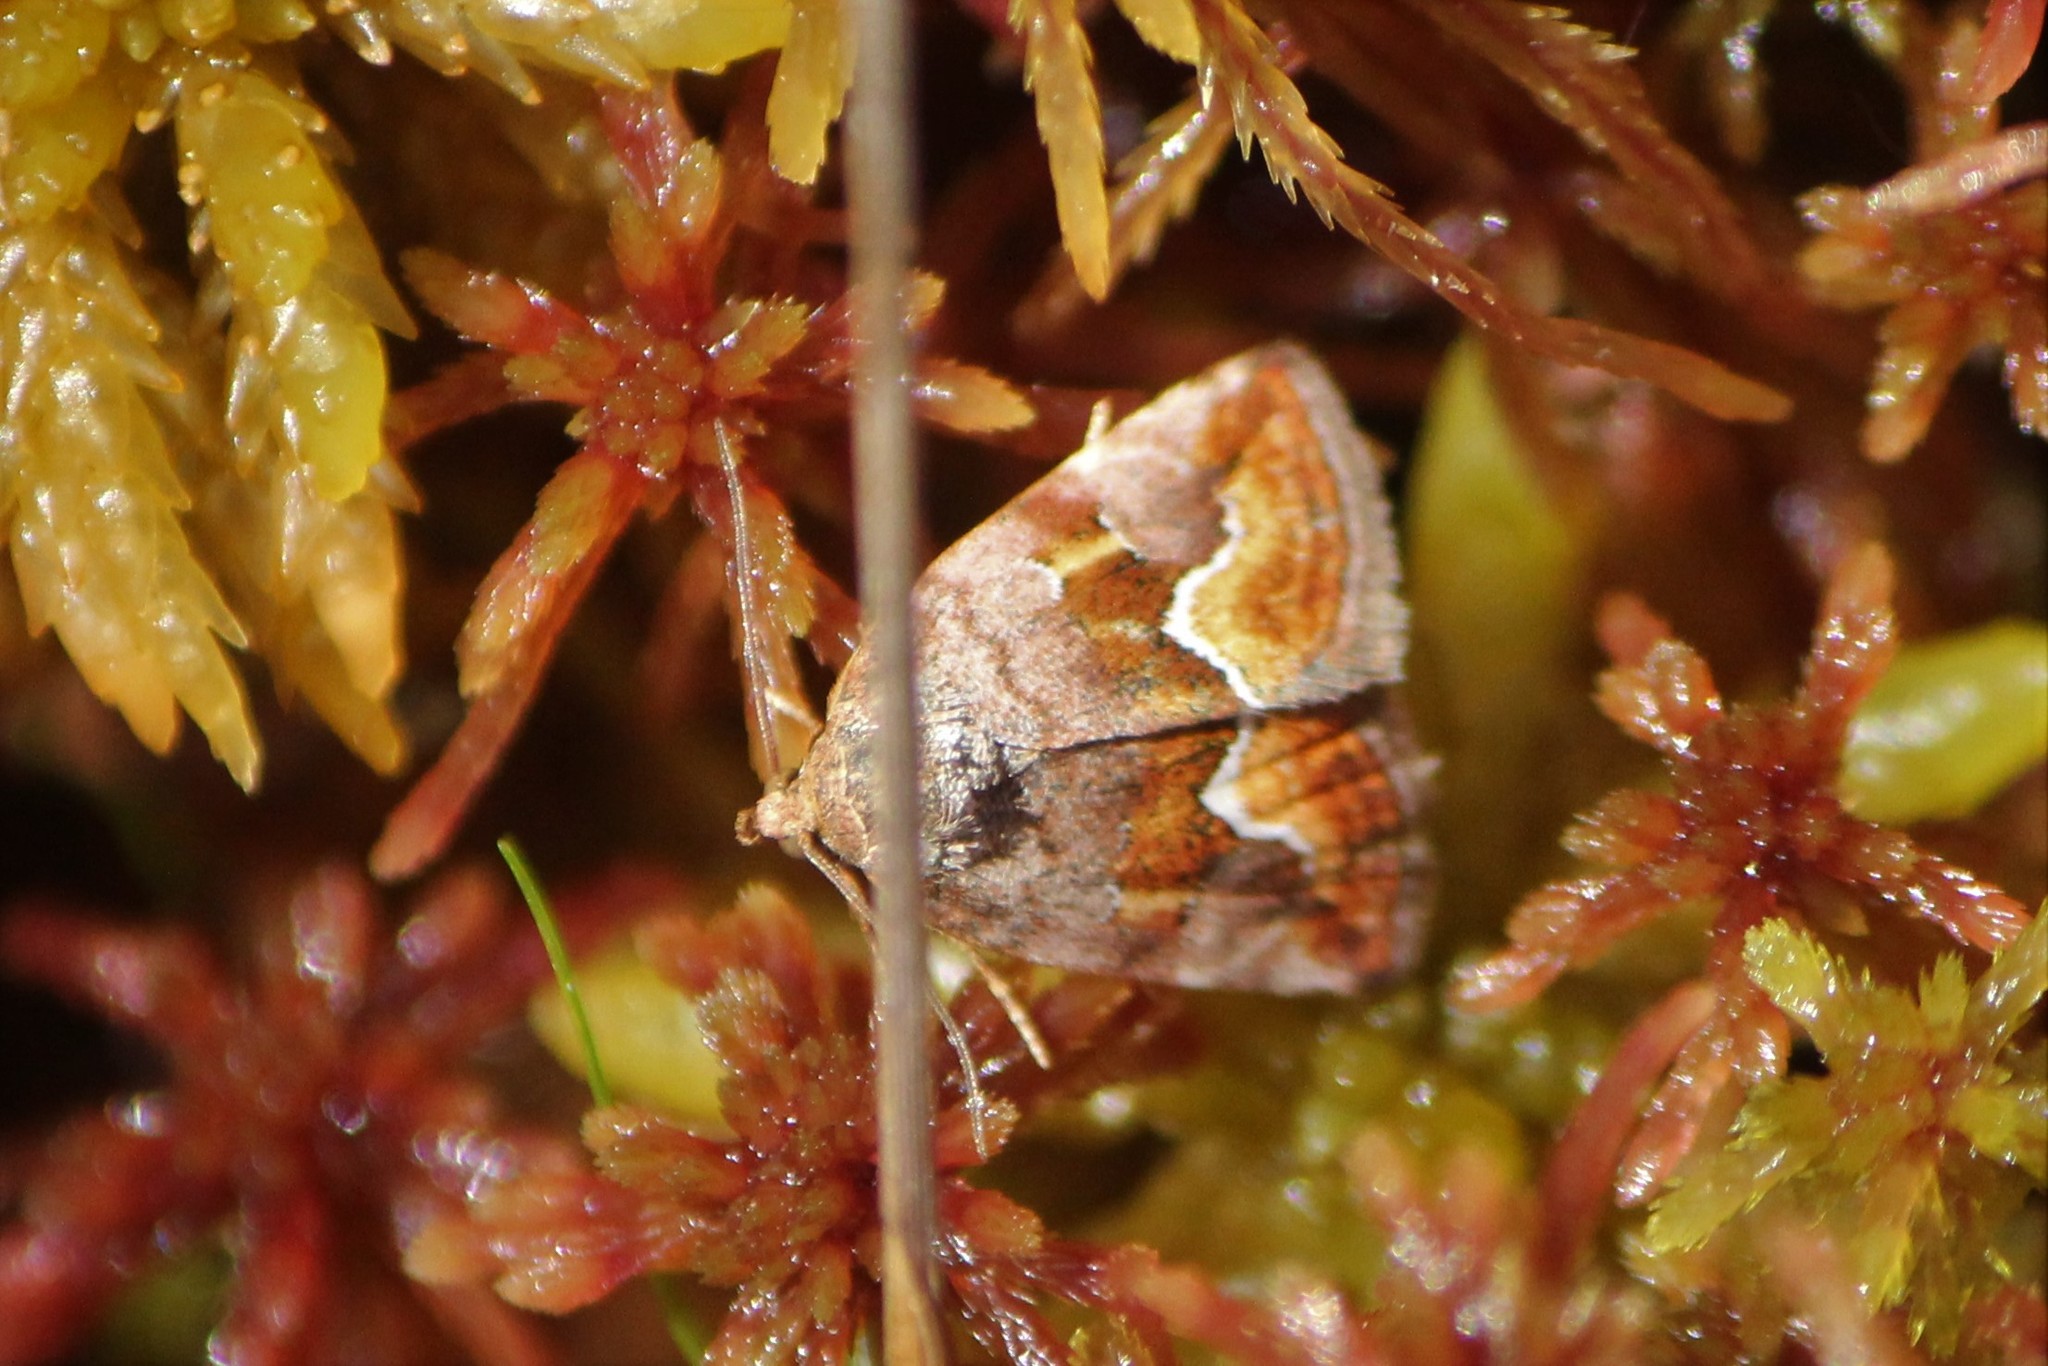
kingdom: Animalia
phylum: Arthropoda
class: Insecta
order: Lepidoptera
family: Noctuidae
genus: Deltote
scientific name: Deltote bellicula
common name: Bog glyph
